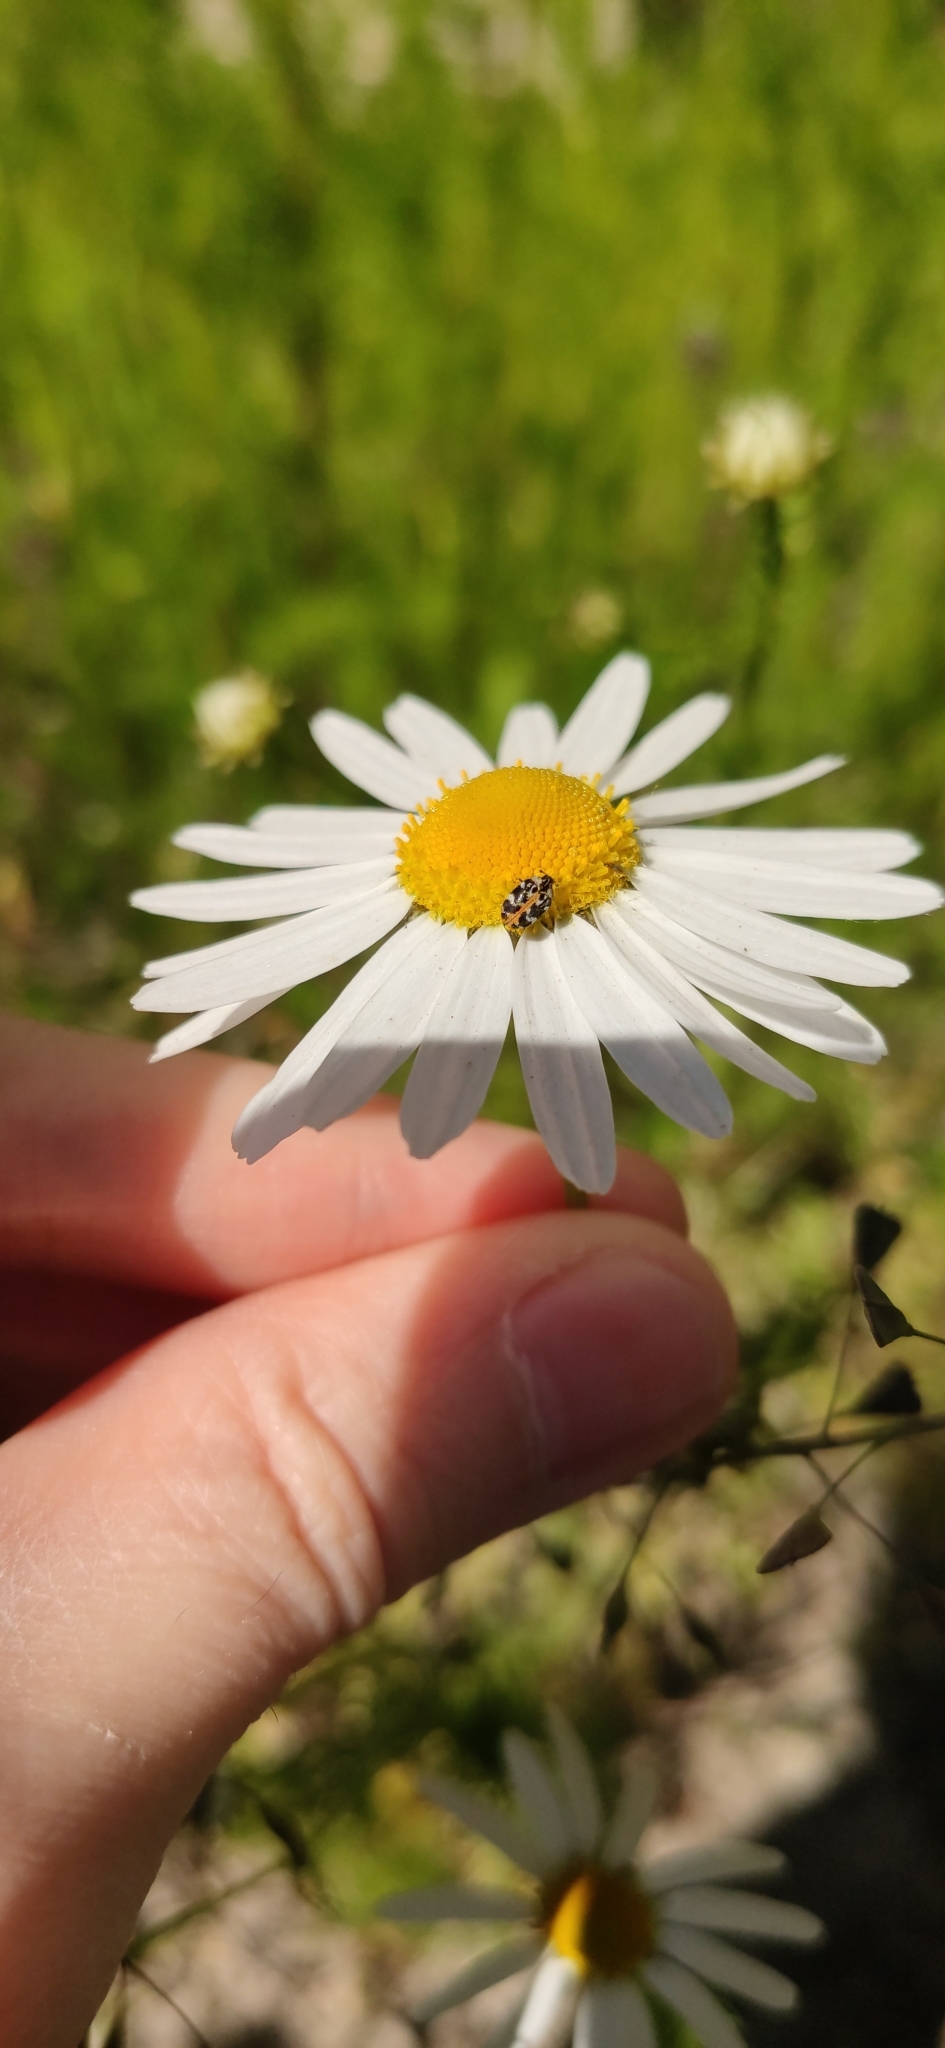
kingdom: Animalia
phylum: Arthropoda
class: Insecta
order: Coleoptera
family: Dermestidae
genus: Anthrenus
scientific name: Anthrenus scrophulariae
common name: Buffalo carpet beetle
